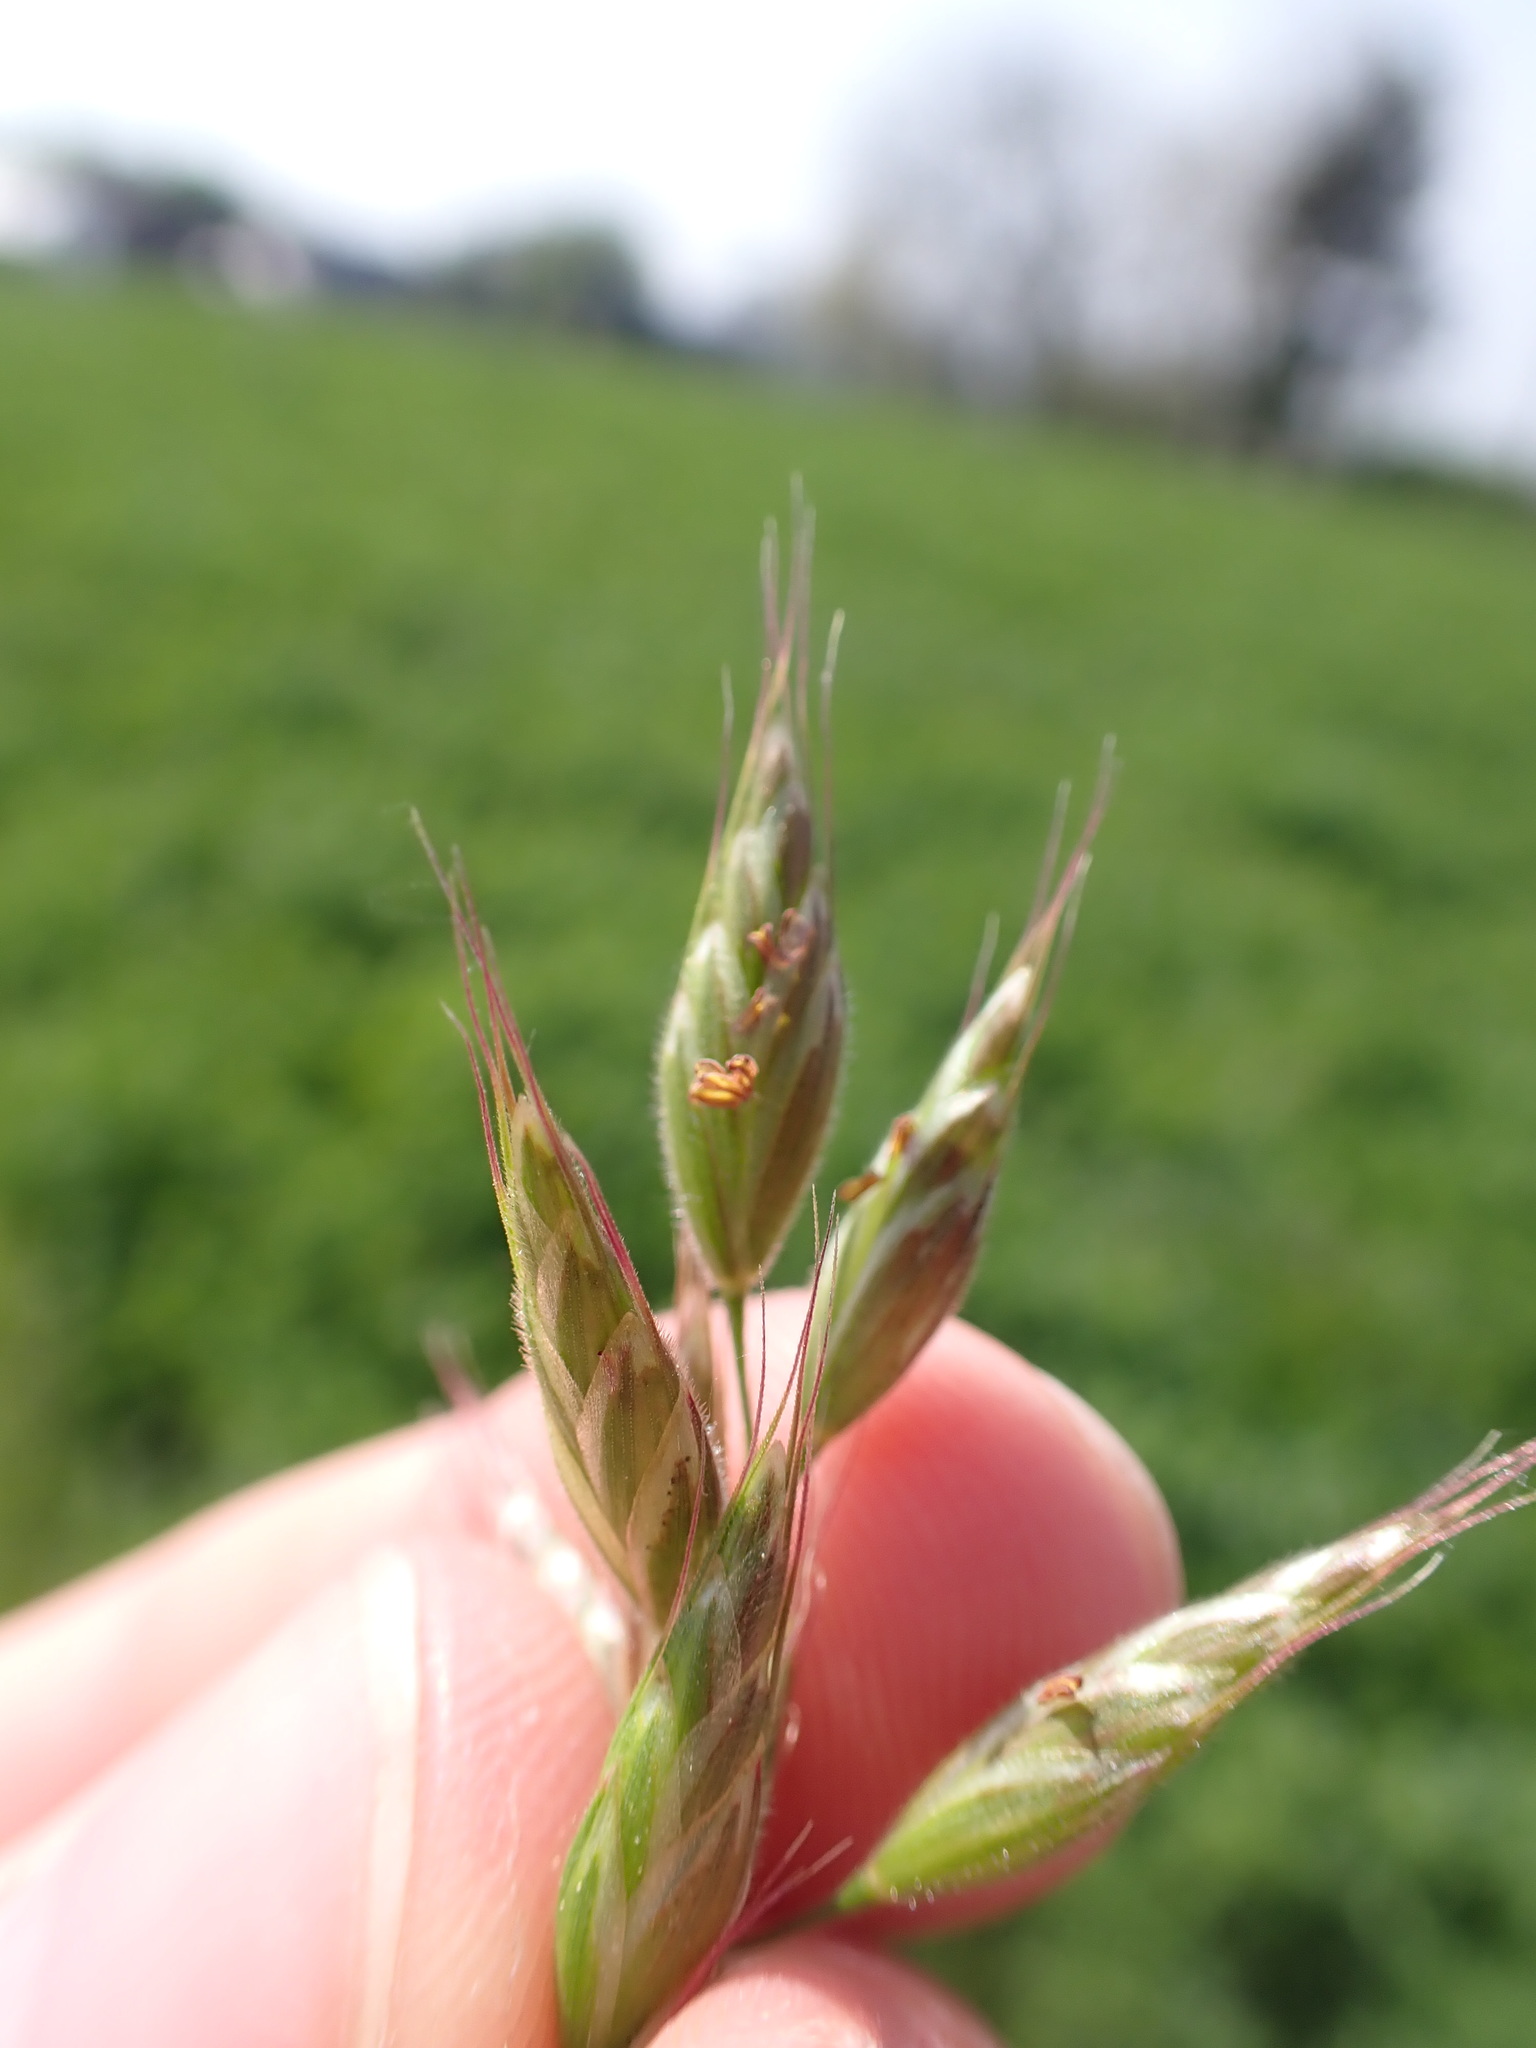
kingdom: Plantae
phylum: Tracheophyta
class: Liliopsida
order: Poales
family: Poaceae
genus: Bromus
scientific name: Bromus hordeaceus
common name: Soft brome
